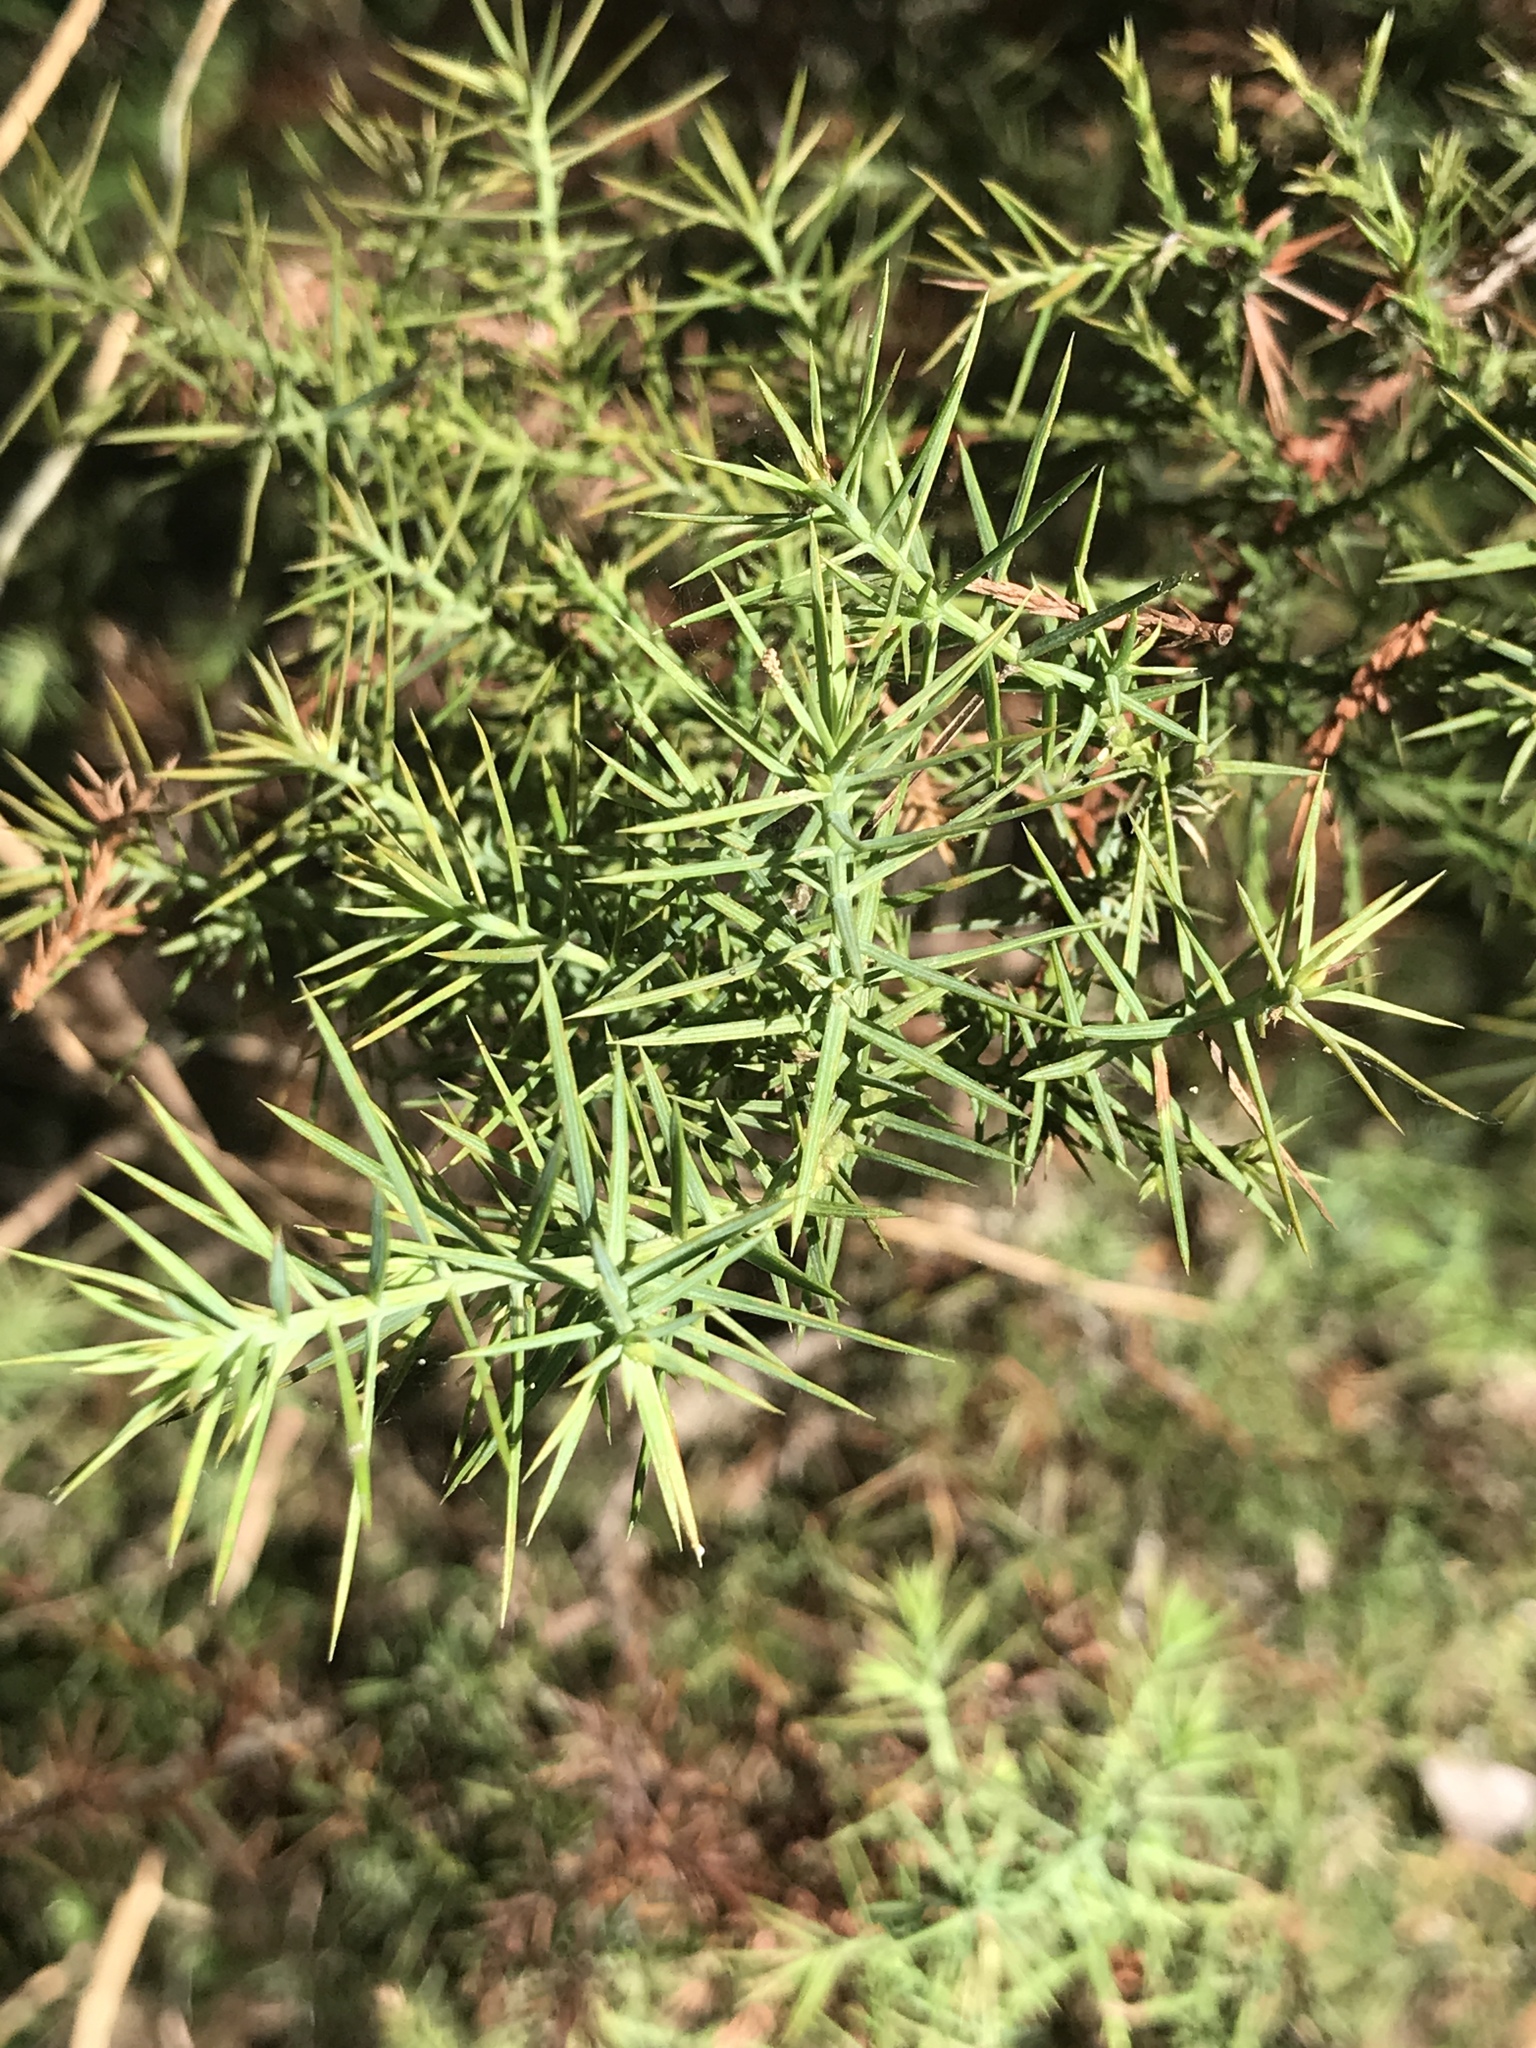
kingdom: Plantae
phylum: Tracheophyta
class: Pinopsida
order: Pinales
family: Cupressaceae
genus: Juniperus
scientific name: Juniperus ashei
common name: Mexican juniper
